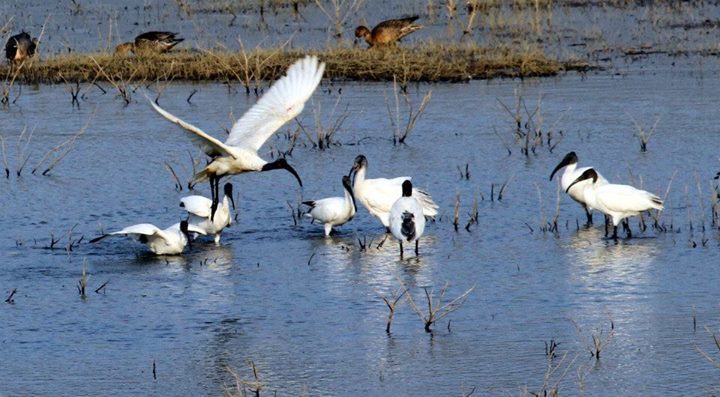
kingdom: Animalia
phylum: Chordata
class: Aves
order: Pelecaniformes
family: Threskiornithidae
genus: Threskiornis
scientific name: Threskiornis melanocephalus
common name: Black-headed ibis
